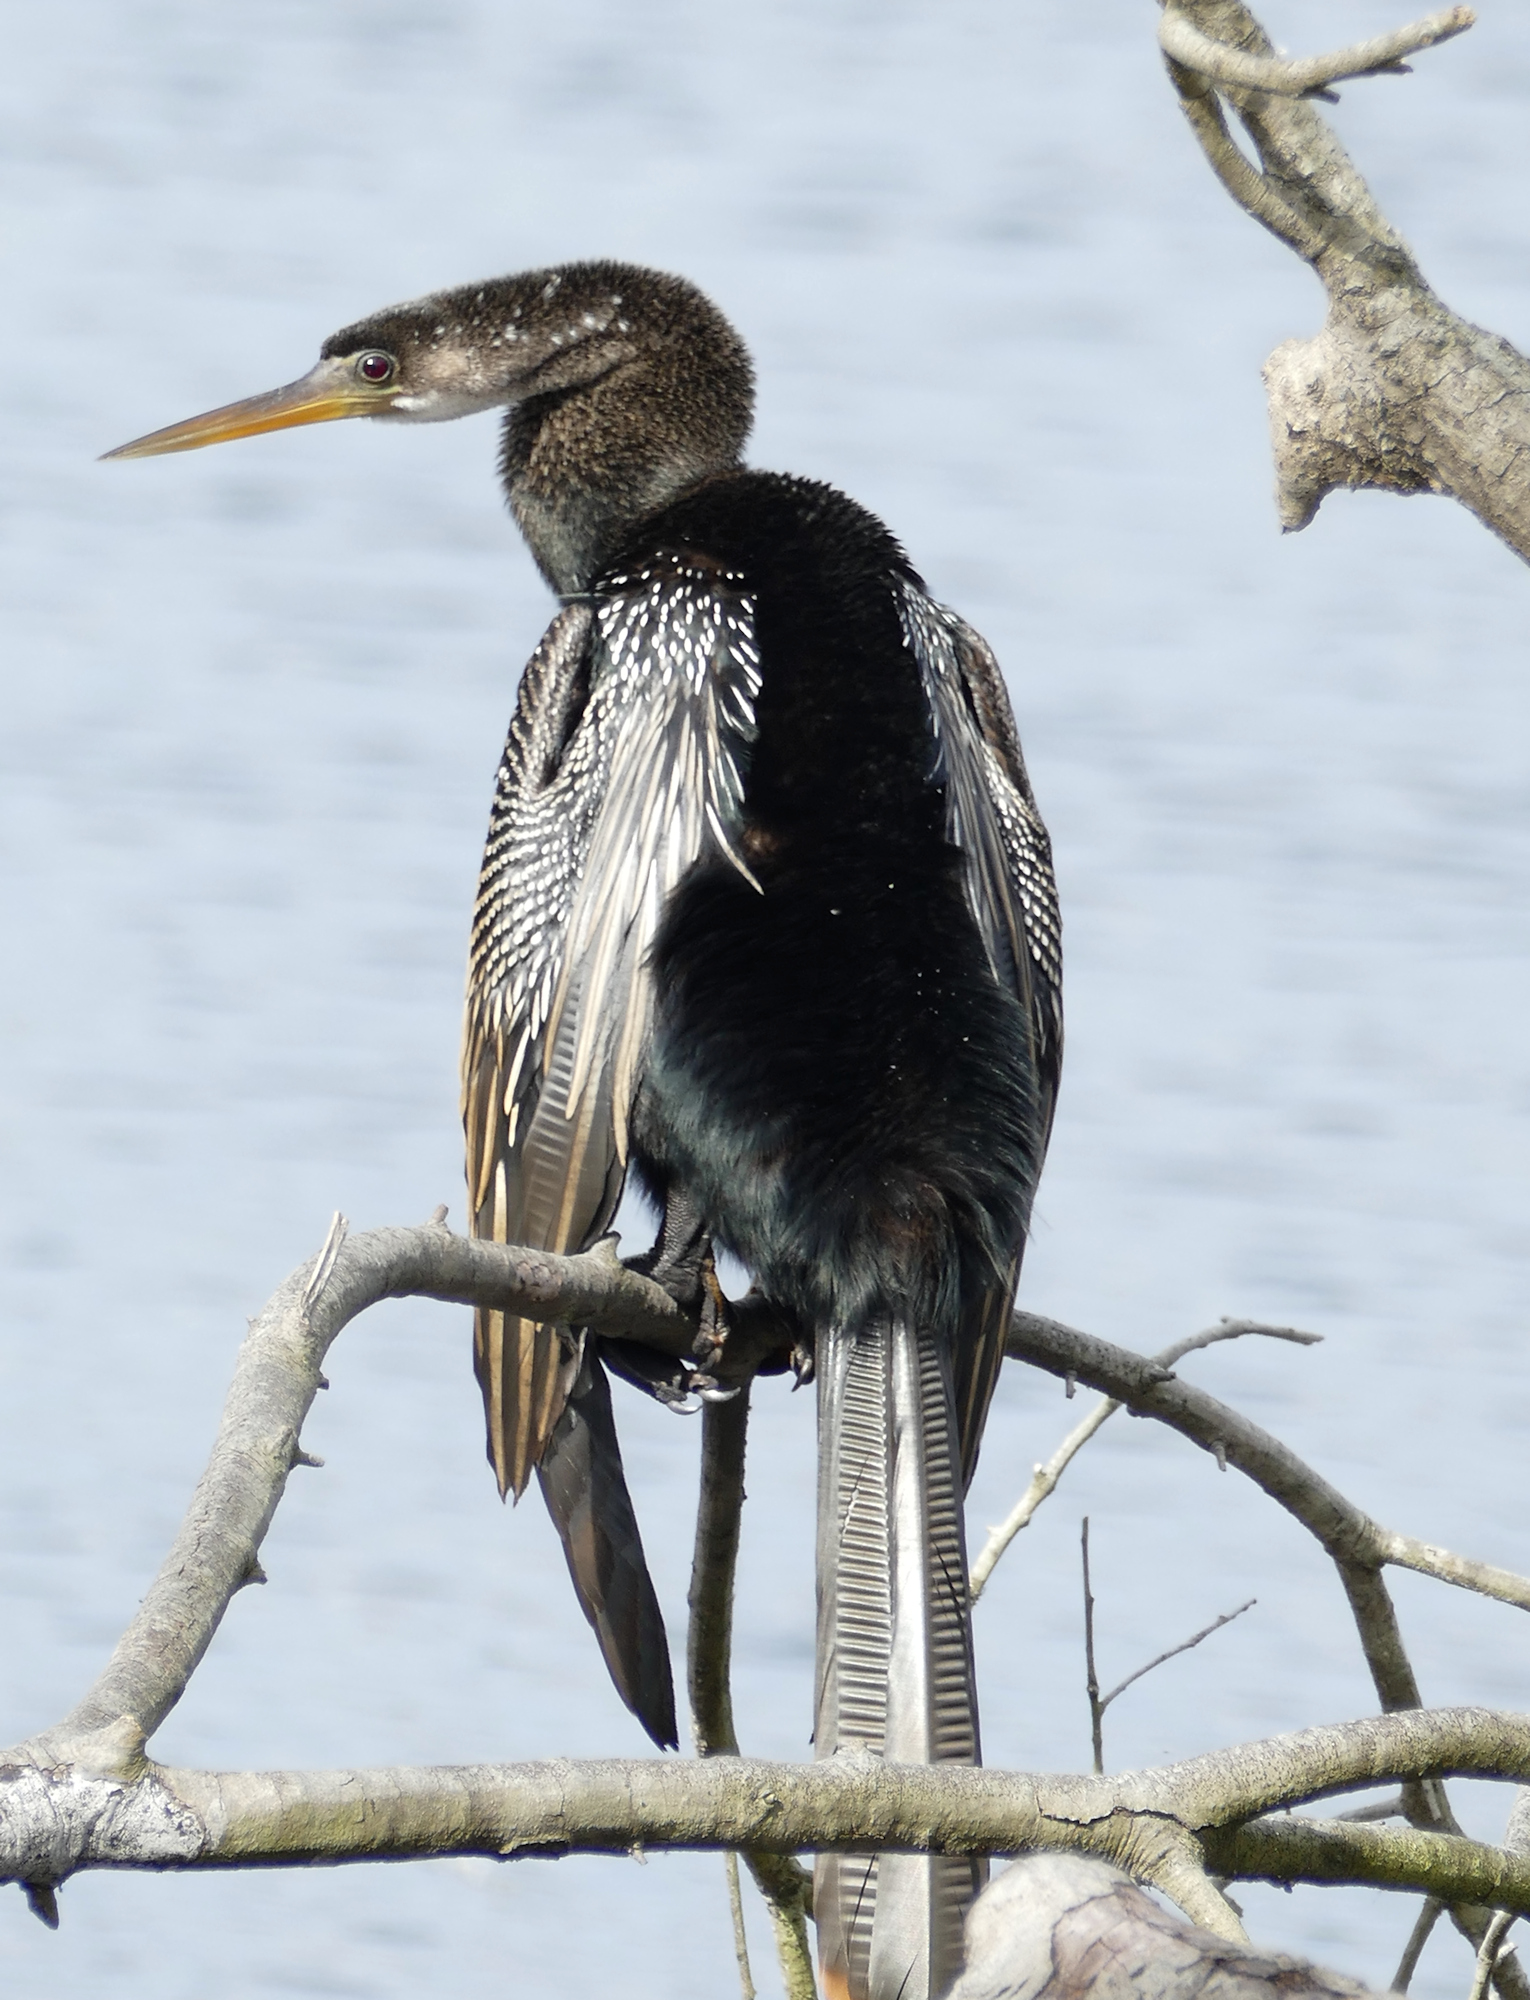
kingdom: Animalia
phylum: Chordata
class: Aves
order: Suliformes
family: Anhingidae
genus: Anhinga
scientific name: Anhinga anhinga
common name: Anhinga
